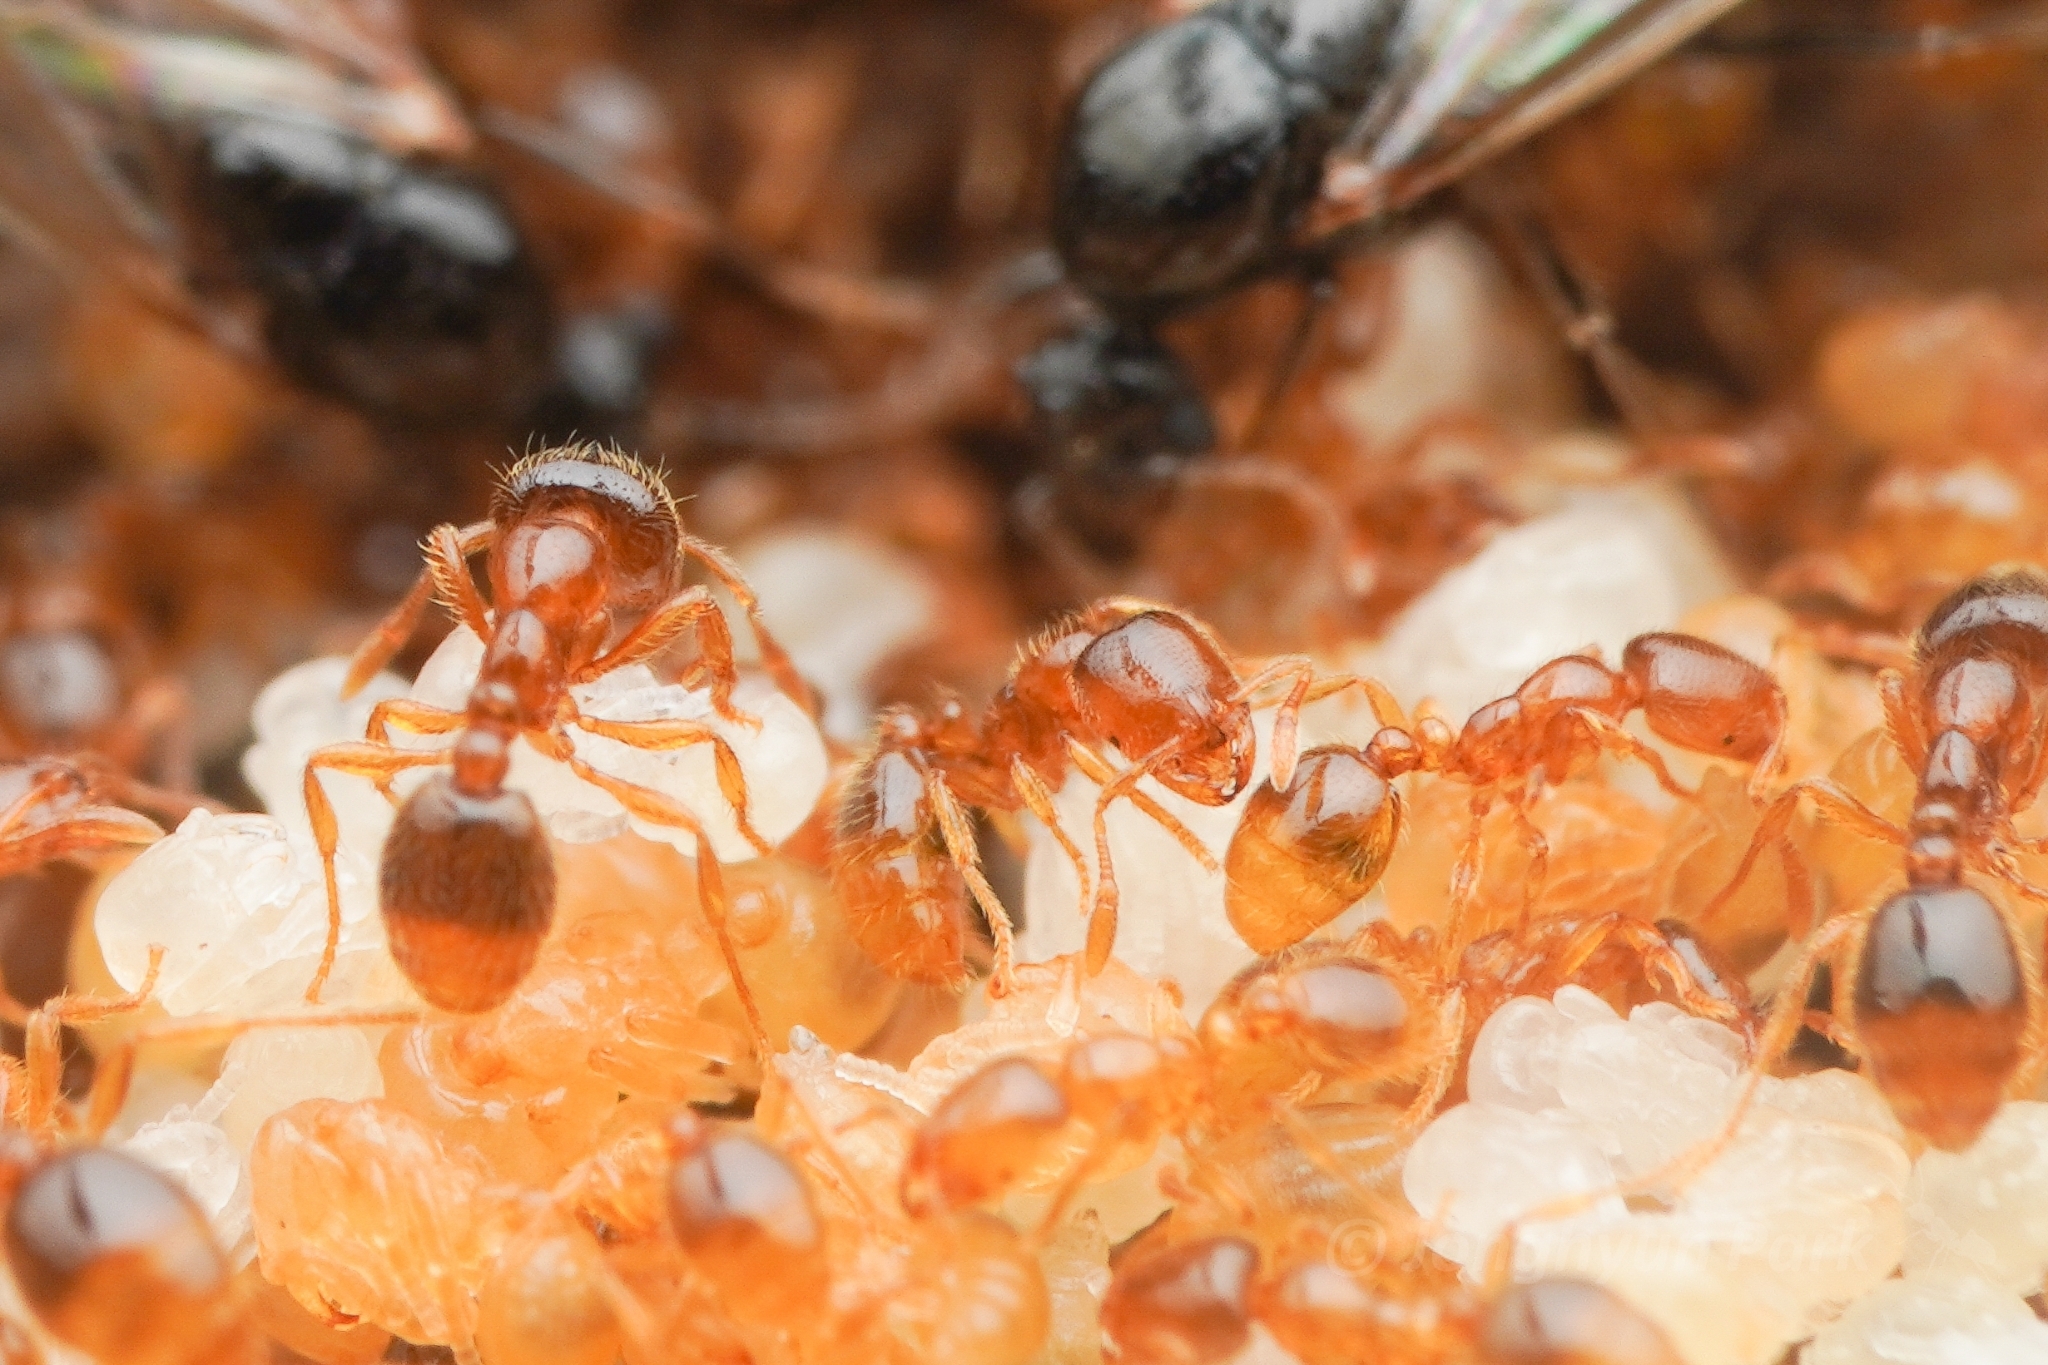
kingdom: Animalia
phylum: Arthropoda
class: Insecta
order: Hymenoptera
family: Formicidae
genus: Solenopsis
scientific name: Solenopsis japonica
